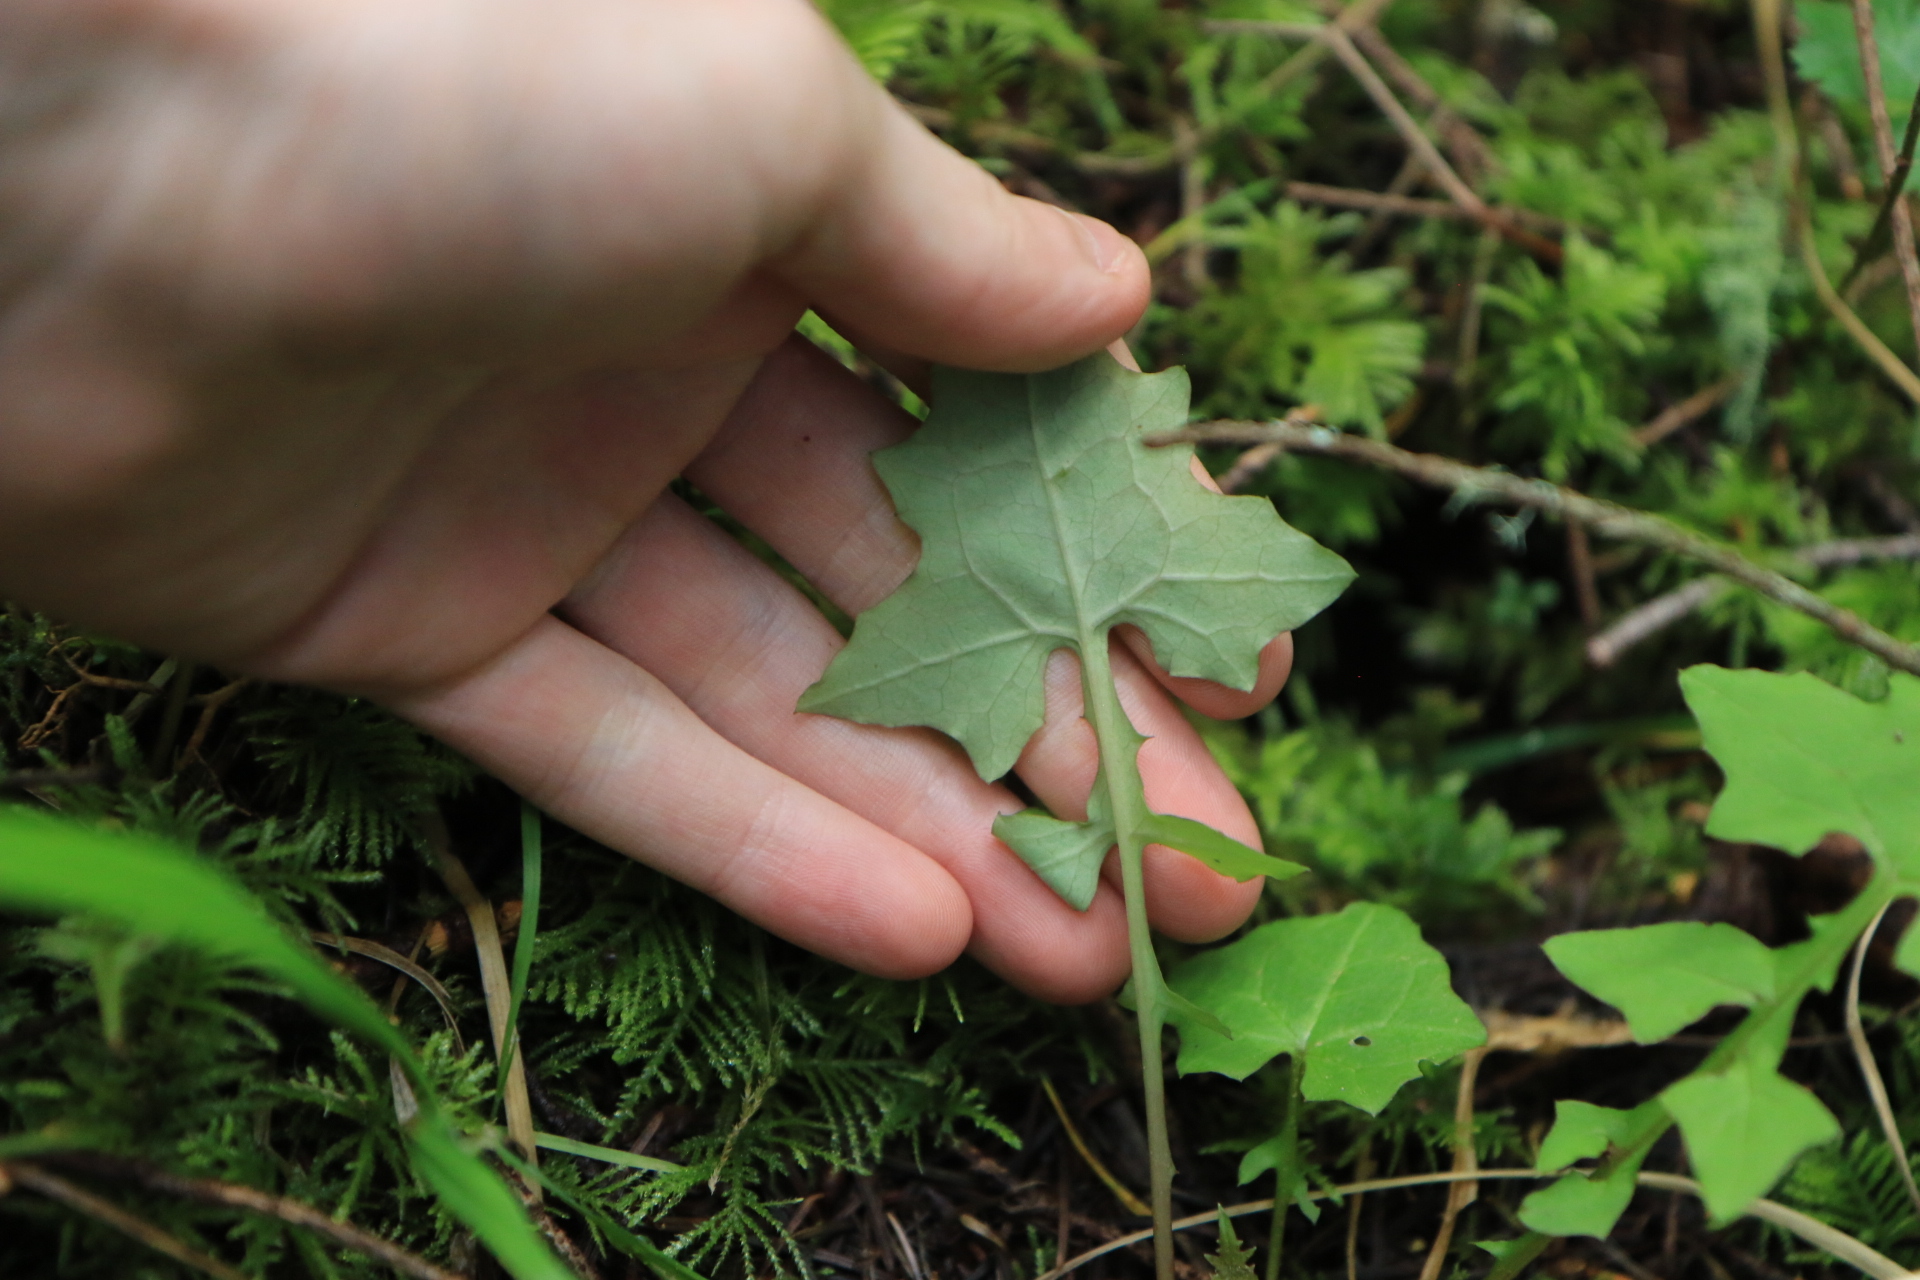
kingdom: Plantae
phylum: Tracheophyta
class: Magnoliopsida
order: Asterales
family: Asteraceae
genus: Mycelis
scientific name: Mycelis muralis
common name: Wall lettuce
